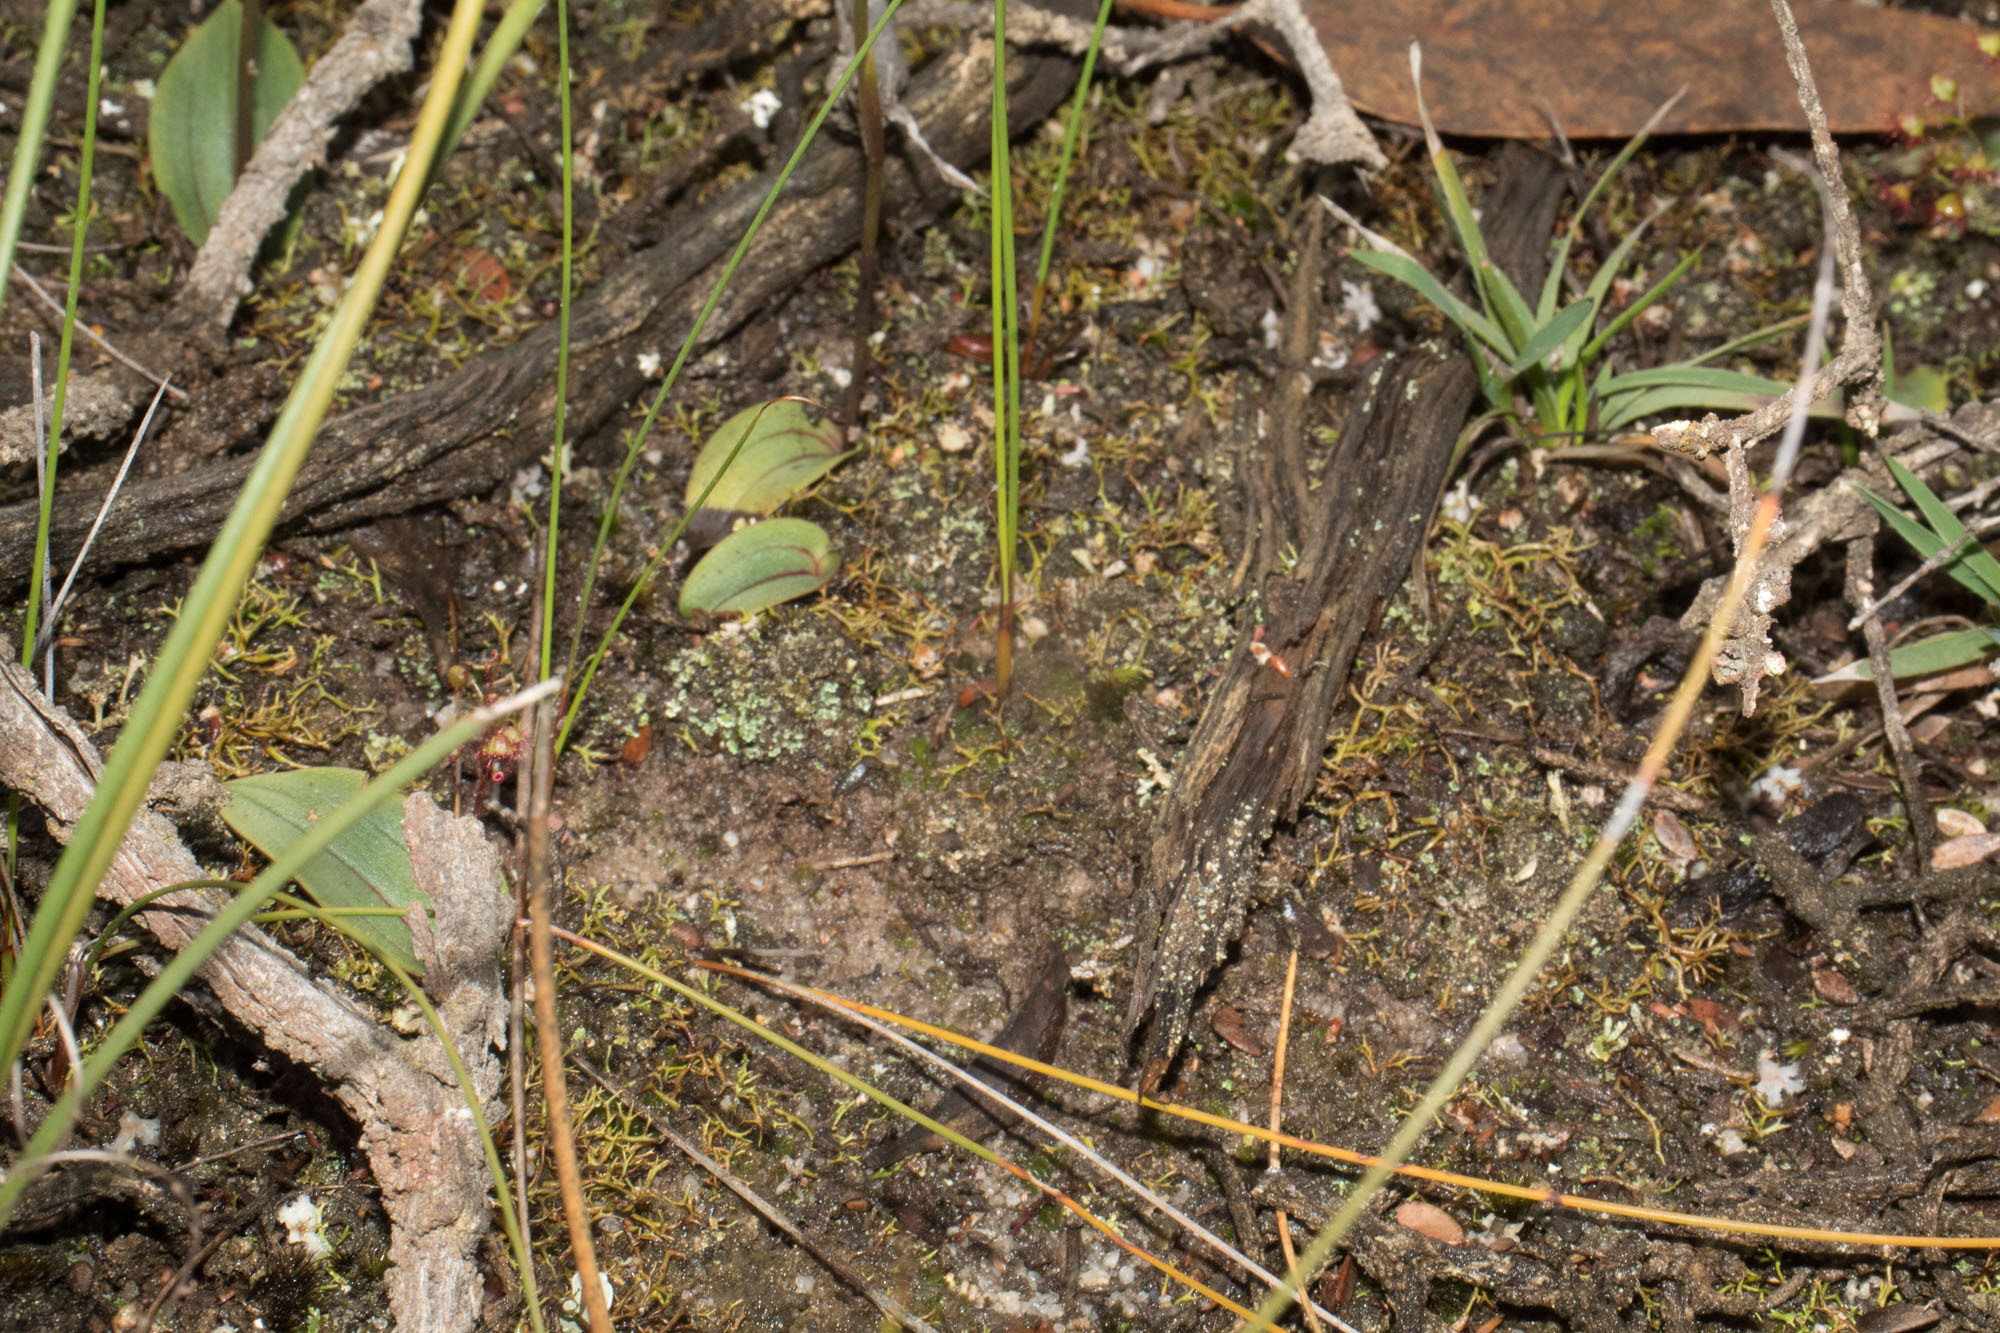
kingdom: Plantae
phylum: Tracheophyta
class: Liliopsida
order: Asparagales
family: Orchidaceae
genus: Leporella
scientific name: Leporella fimbriata
